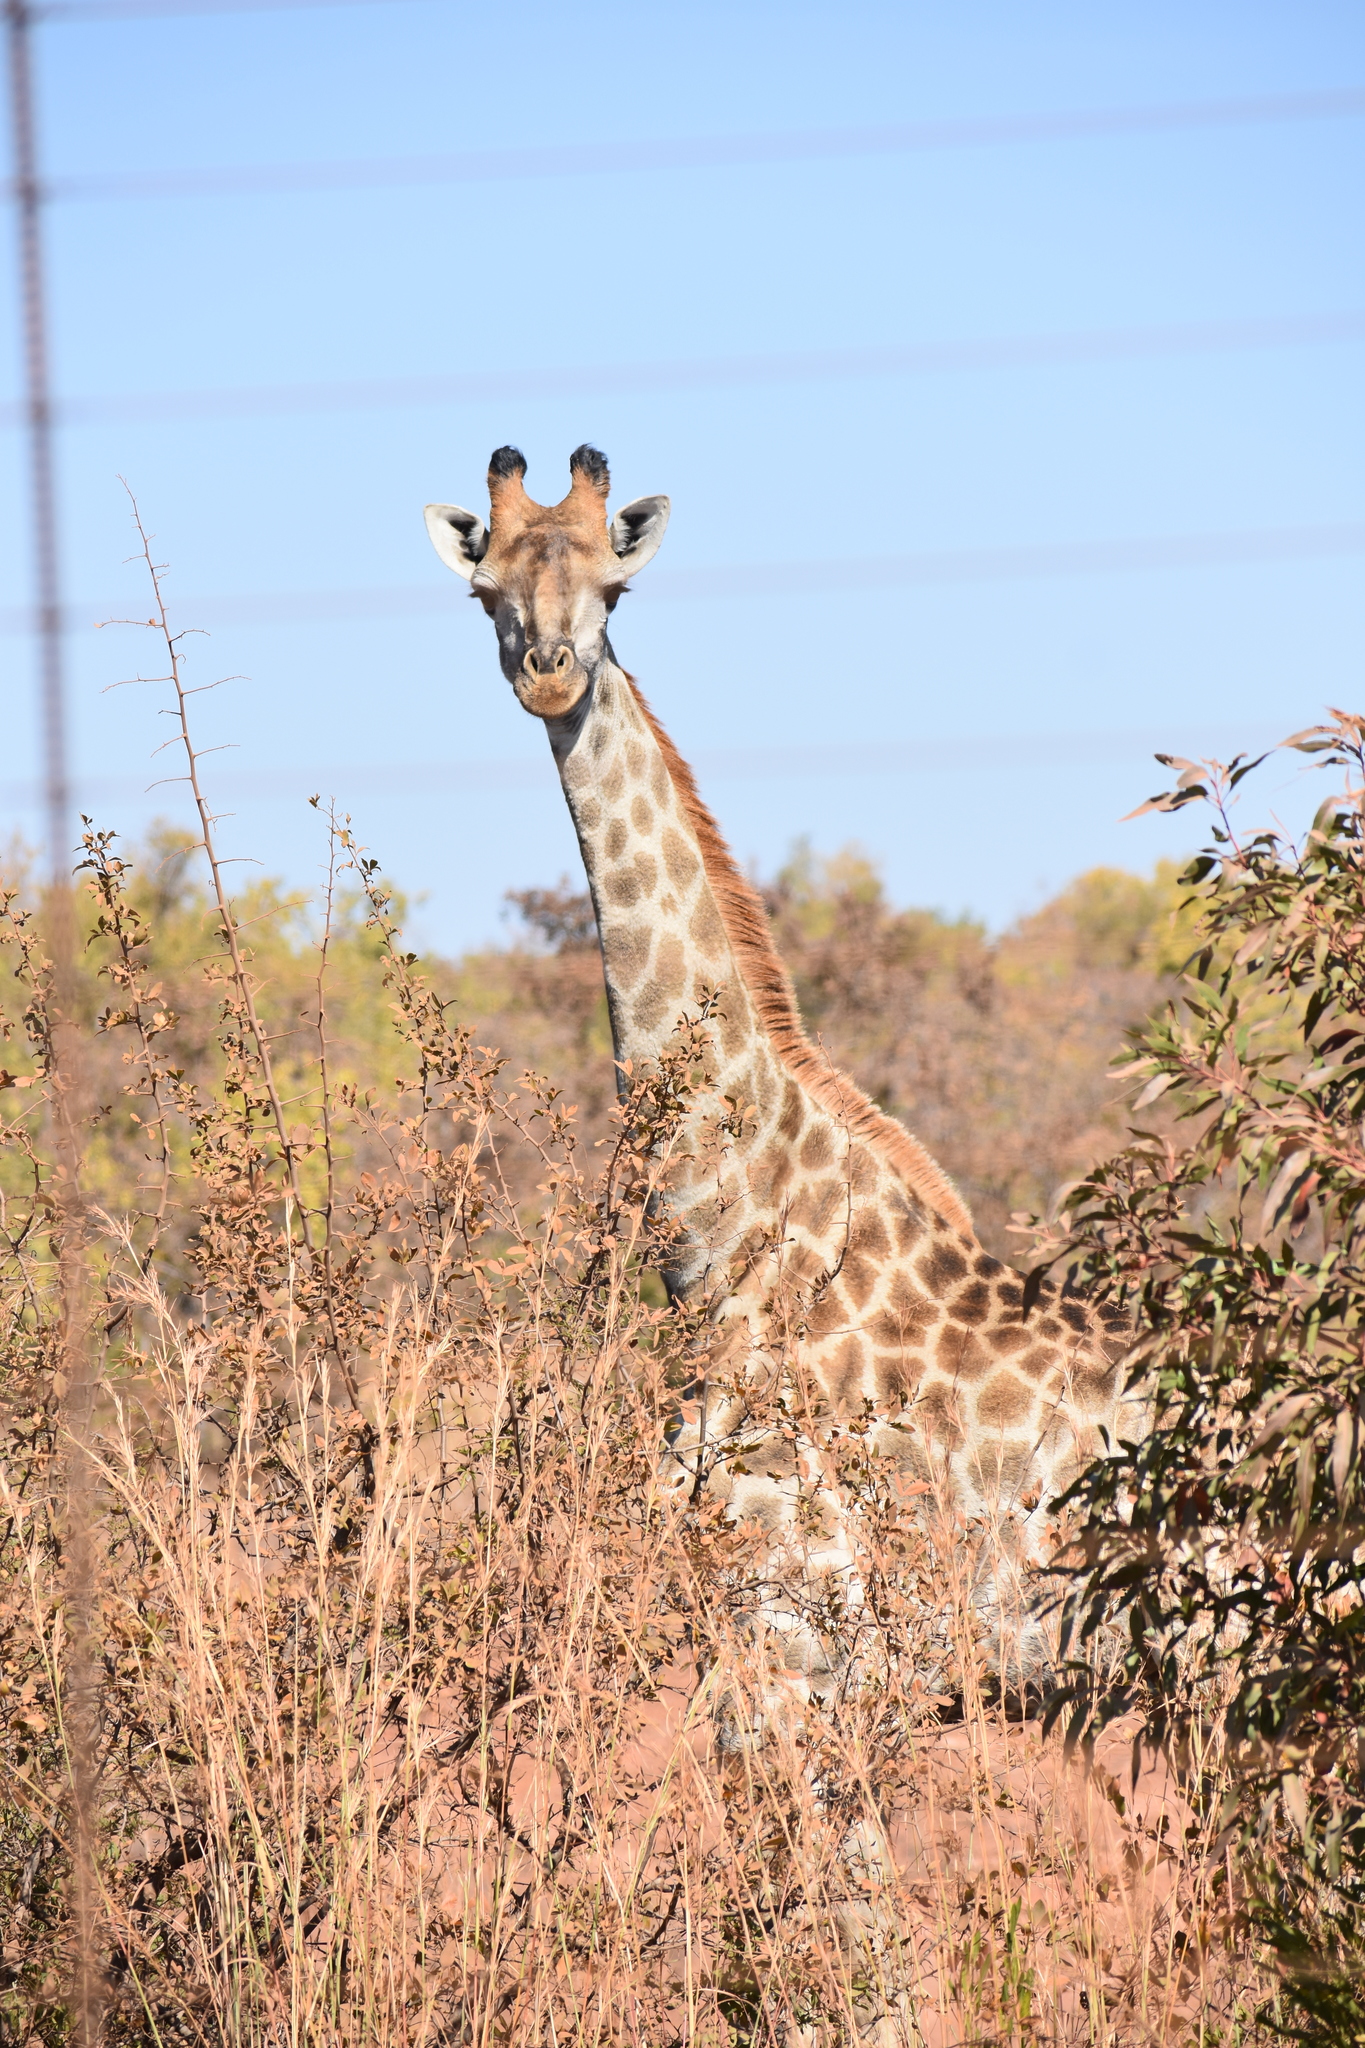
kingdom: Animalia
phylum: Chordata
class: Mammalia
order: Artiodactyla
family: Giraffidae
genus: Giraffa
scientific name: Giraffa giraffa
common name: Southern giraffe
